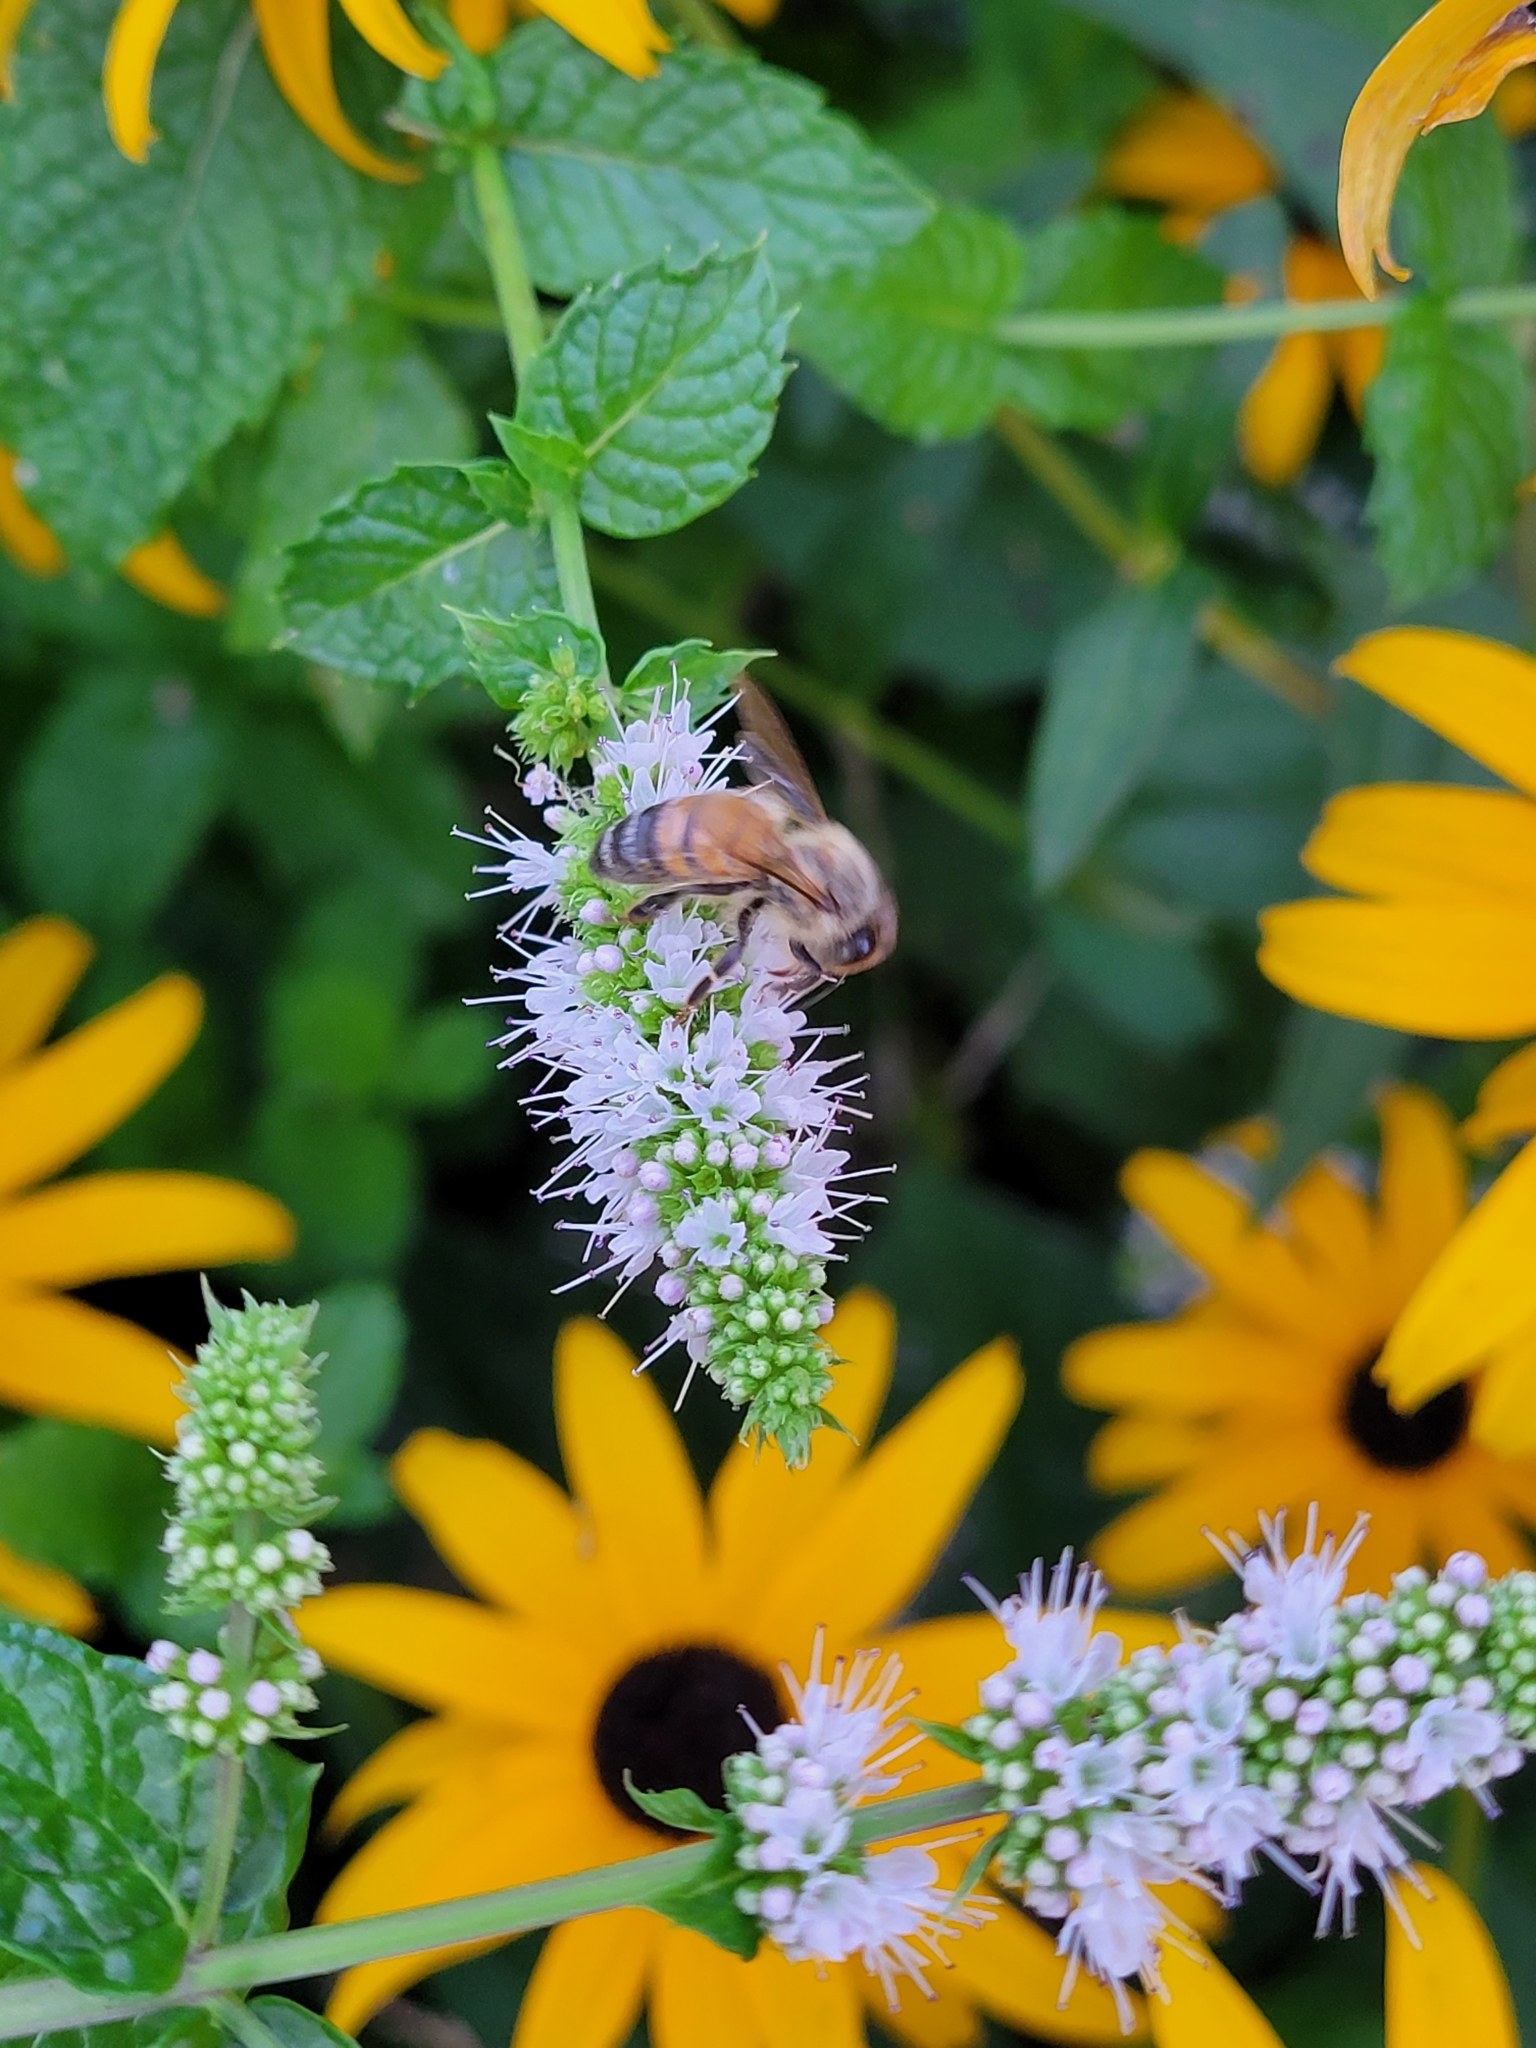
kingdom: Animalia
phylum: Arthropoda
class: Insecta
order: Hymenoptera
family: Apidae
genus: Apis
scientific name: Apis mellifera
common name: Honey bee
